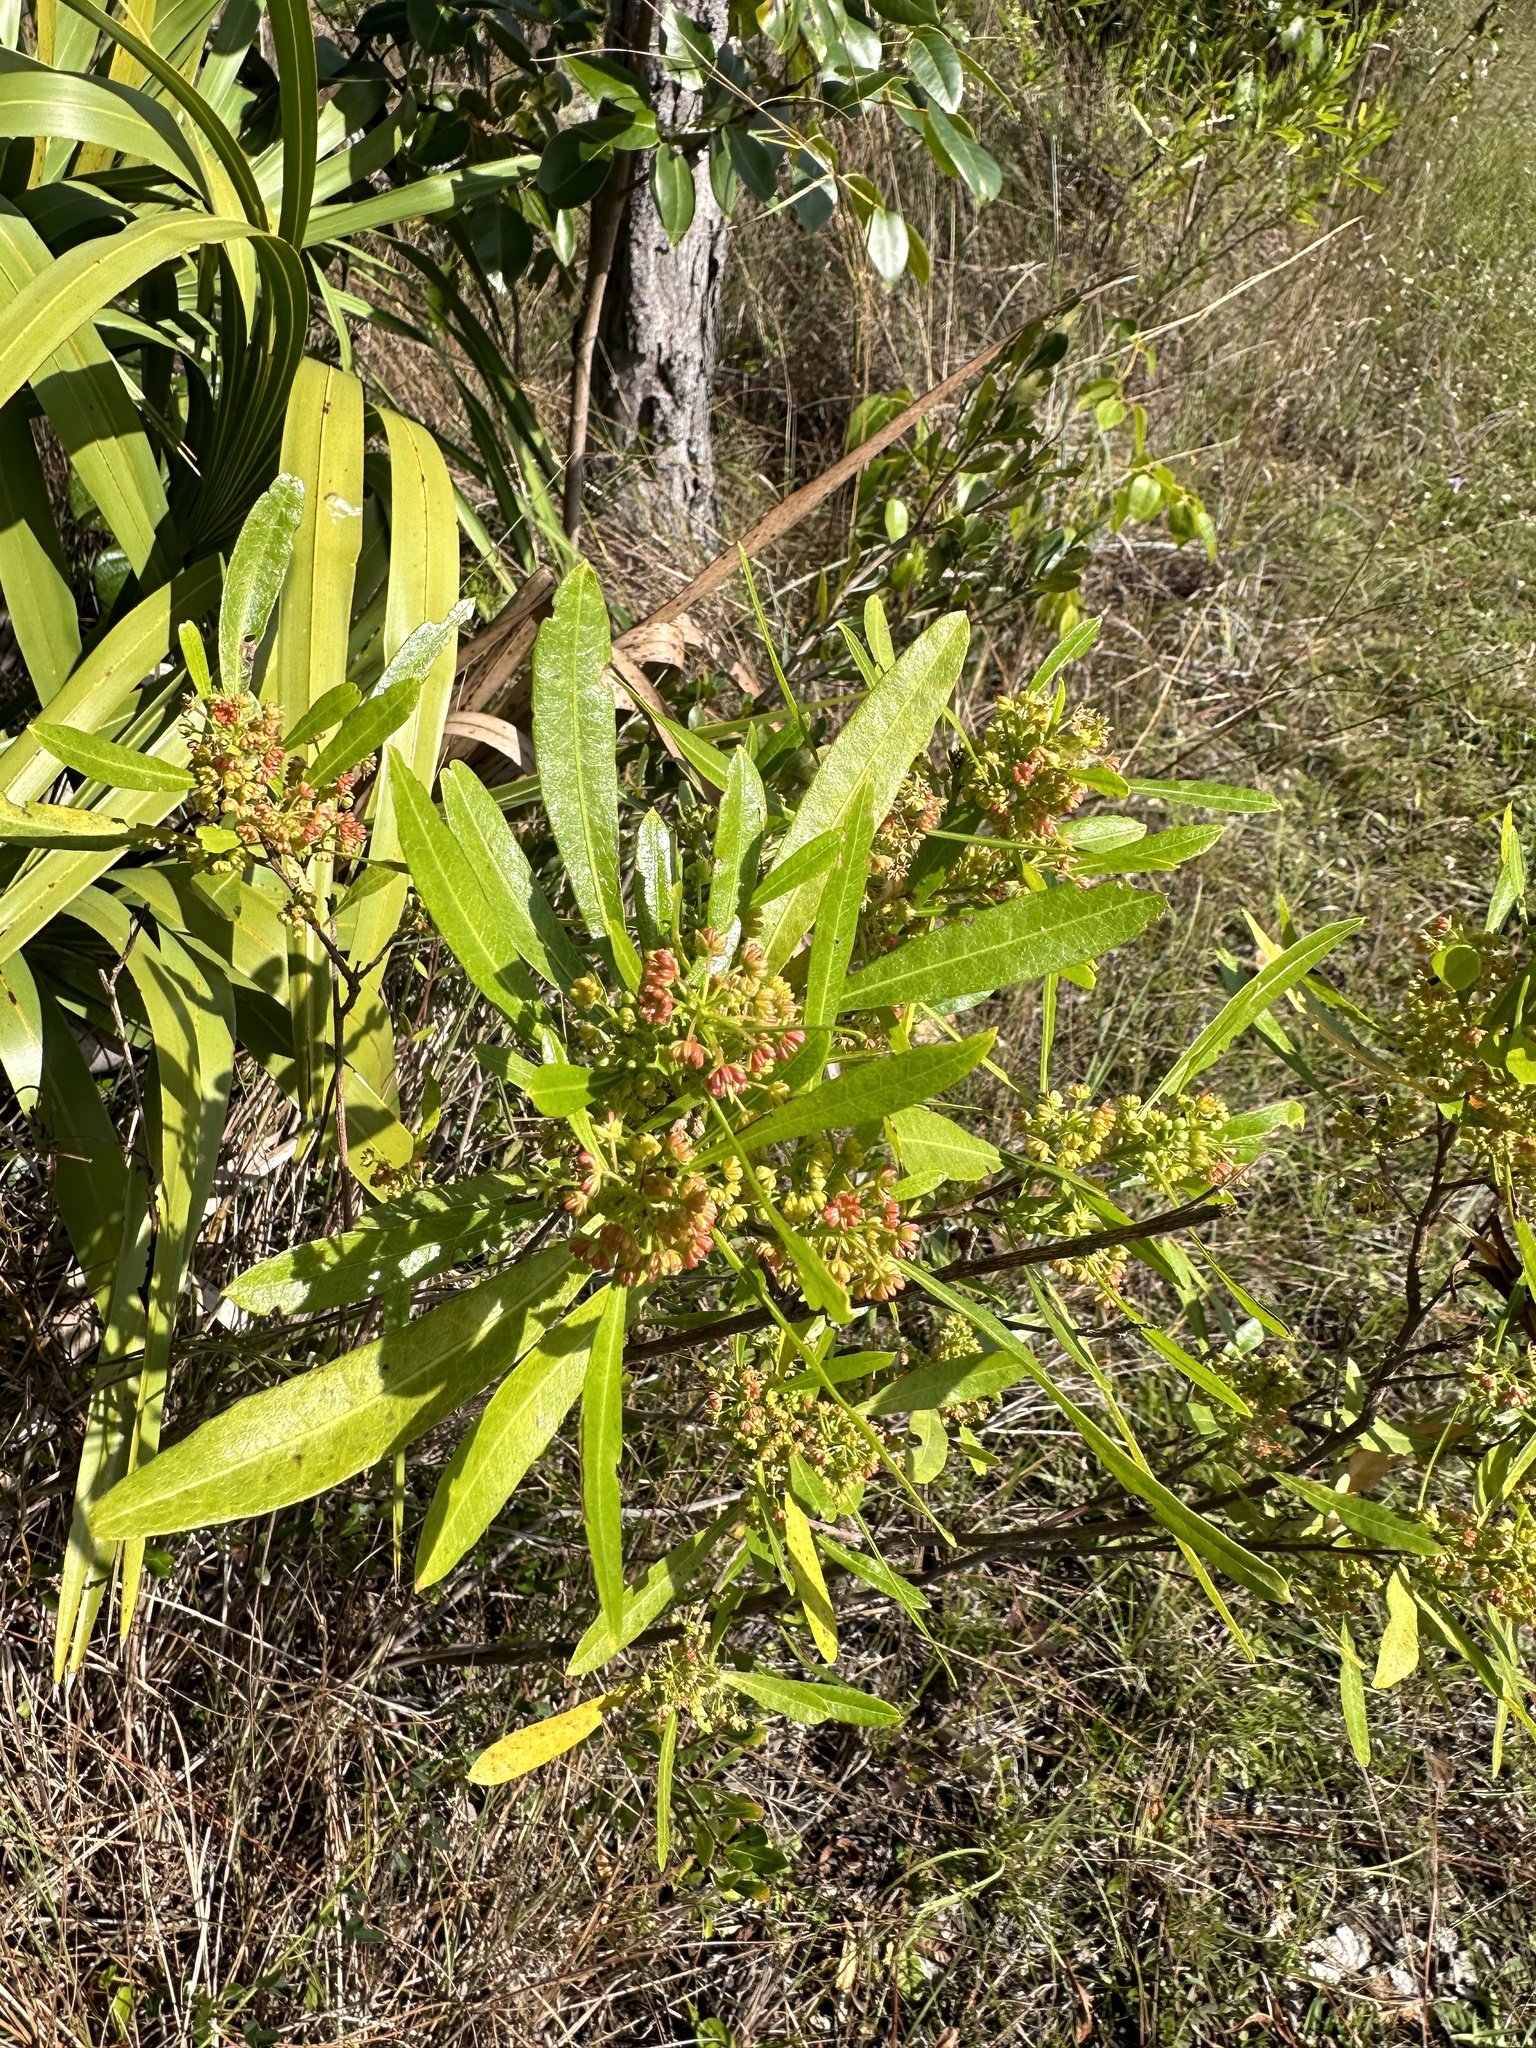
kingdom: Plantae
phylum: Tracheophyta
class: Magnoliopsida
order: Sapindales
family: Sapindaceae
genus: Dodonaea
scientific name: Dodonaea viscosa
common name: Hopbush
